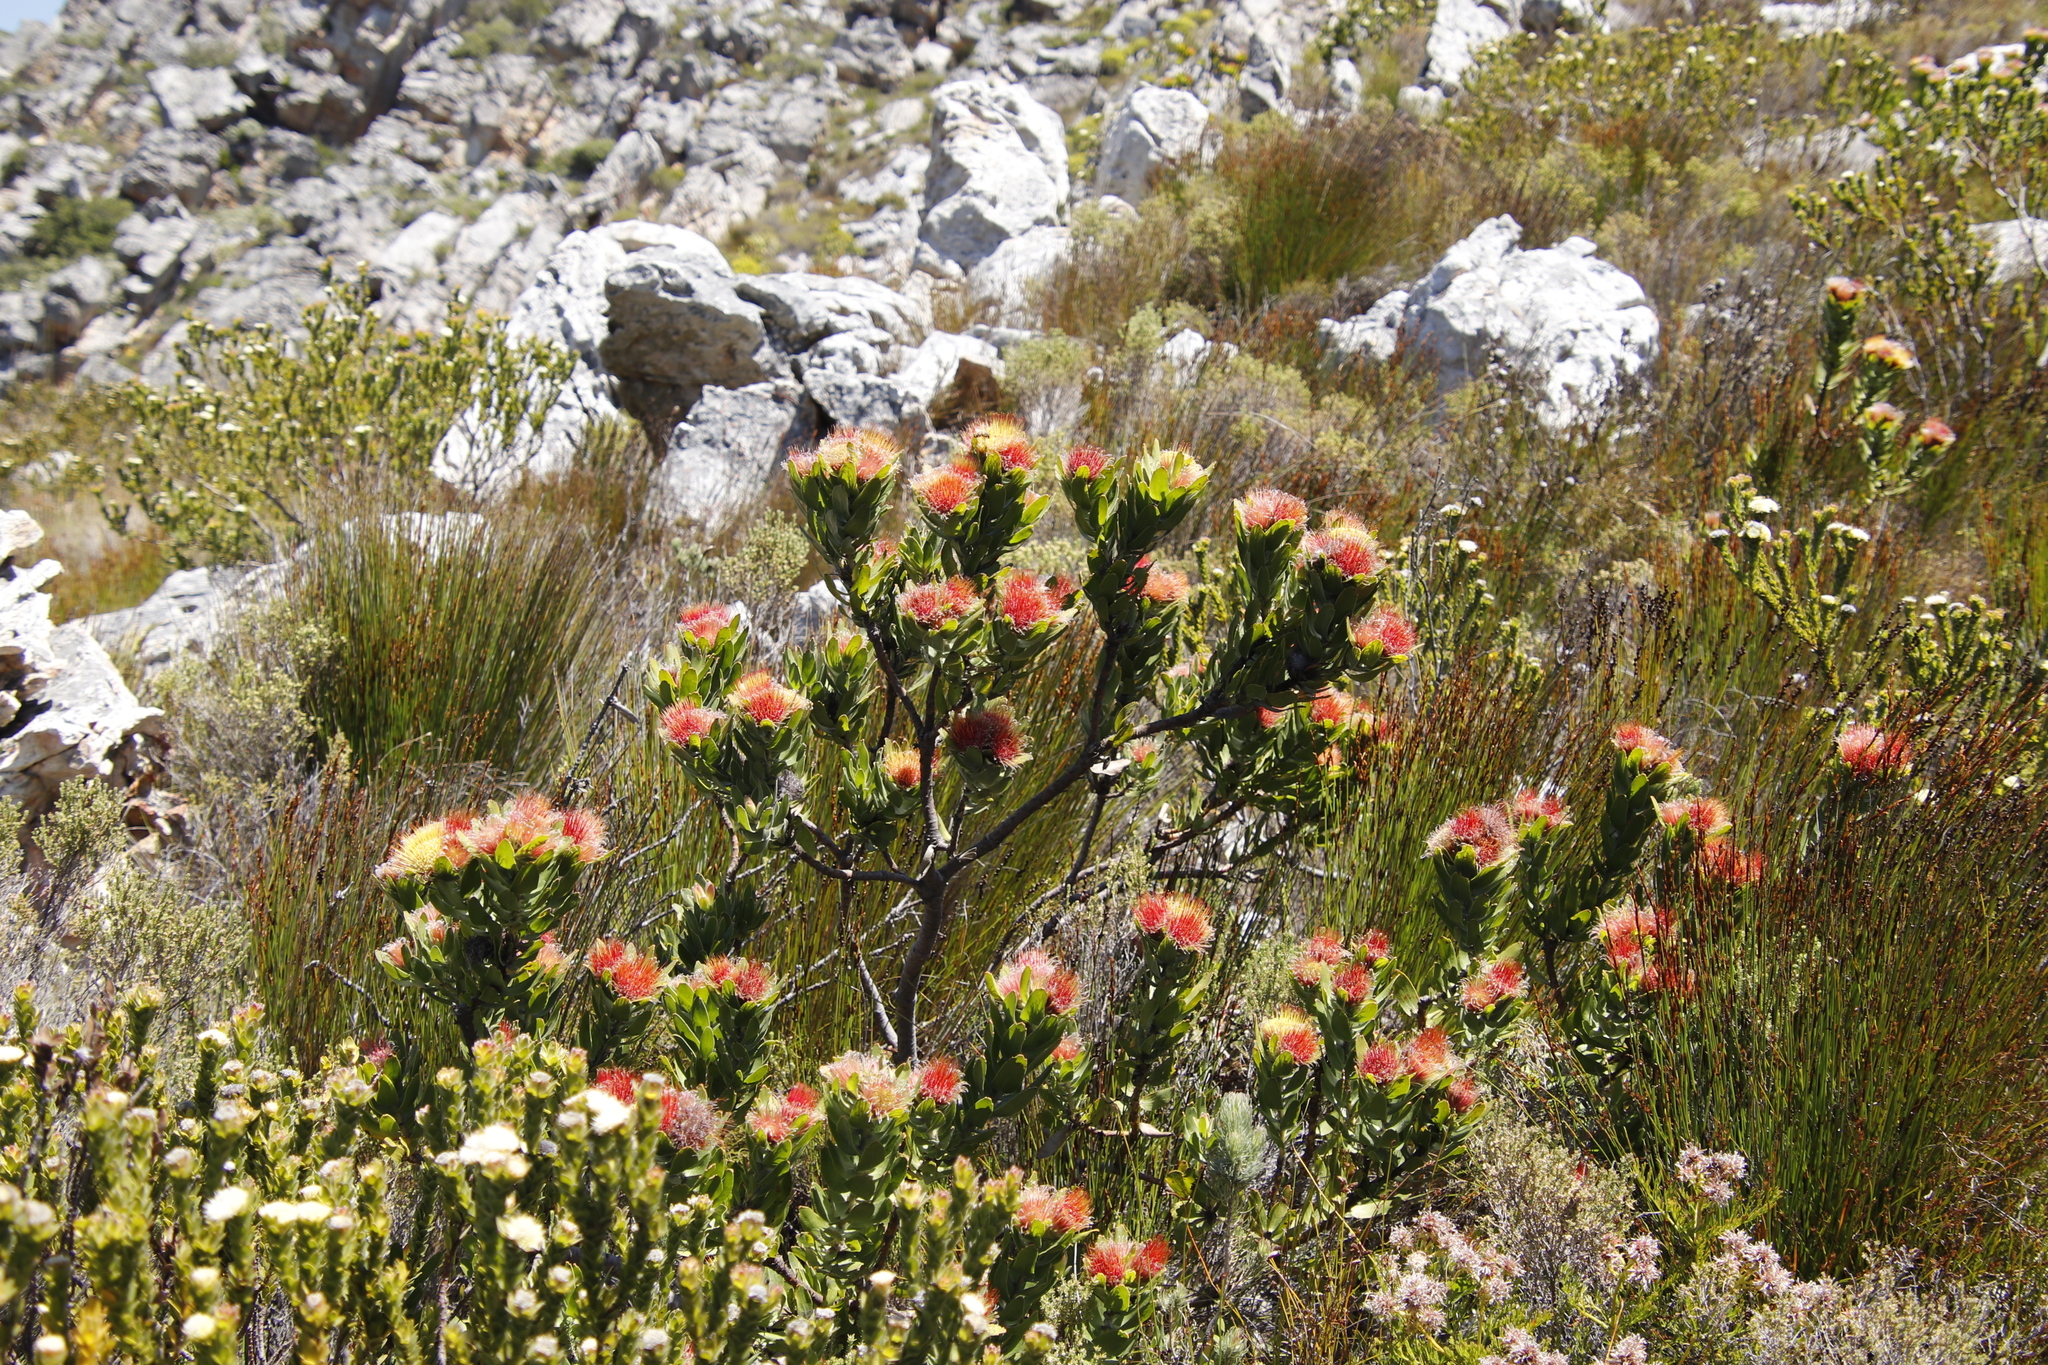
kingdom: Plantae
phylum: Tracheophyta
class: Magnoliopsida
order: Proteales
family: Proteaceae
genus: Leucospermum
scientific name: Leucospermum oleifolium
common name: Matches
